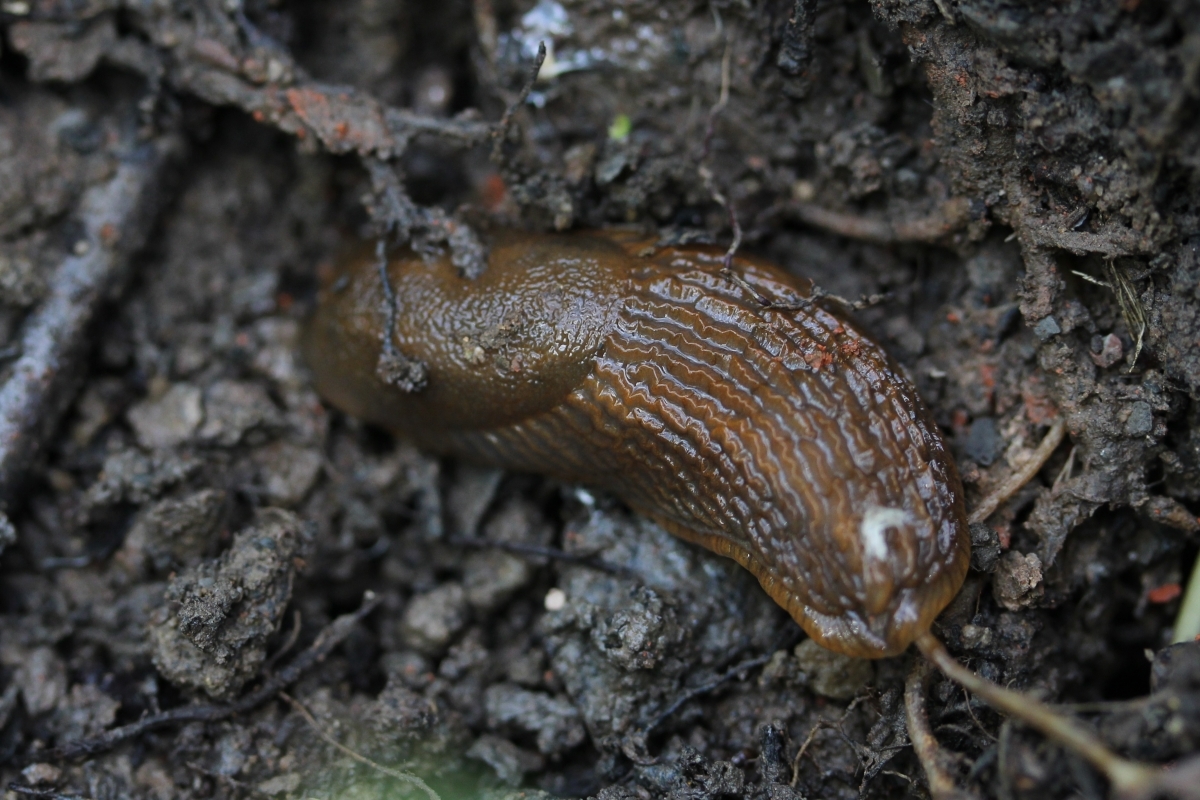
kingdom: Animalia
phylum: Mollusca
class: Gastropoda
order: Stylommatophora
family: Arionidae
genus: Arion
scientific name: Arion vulgaris
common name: Lusitanian slug
